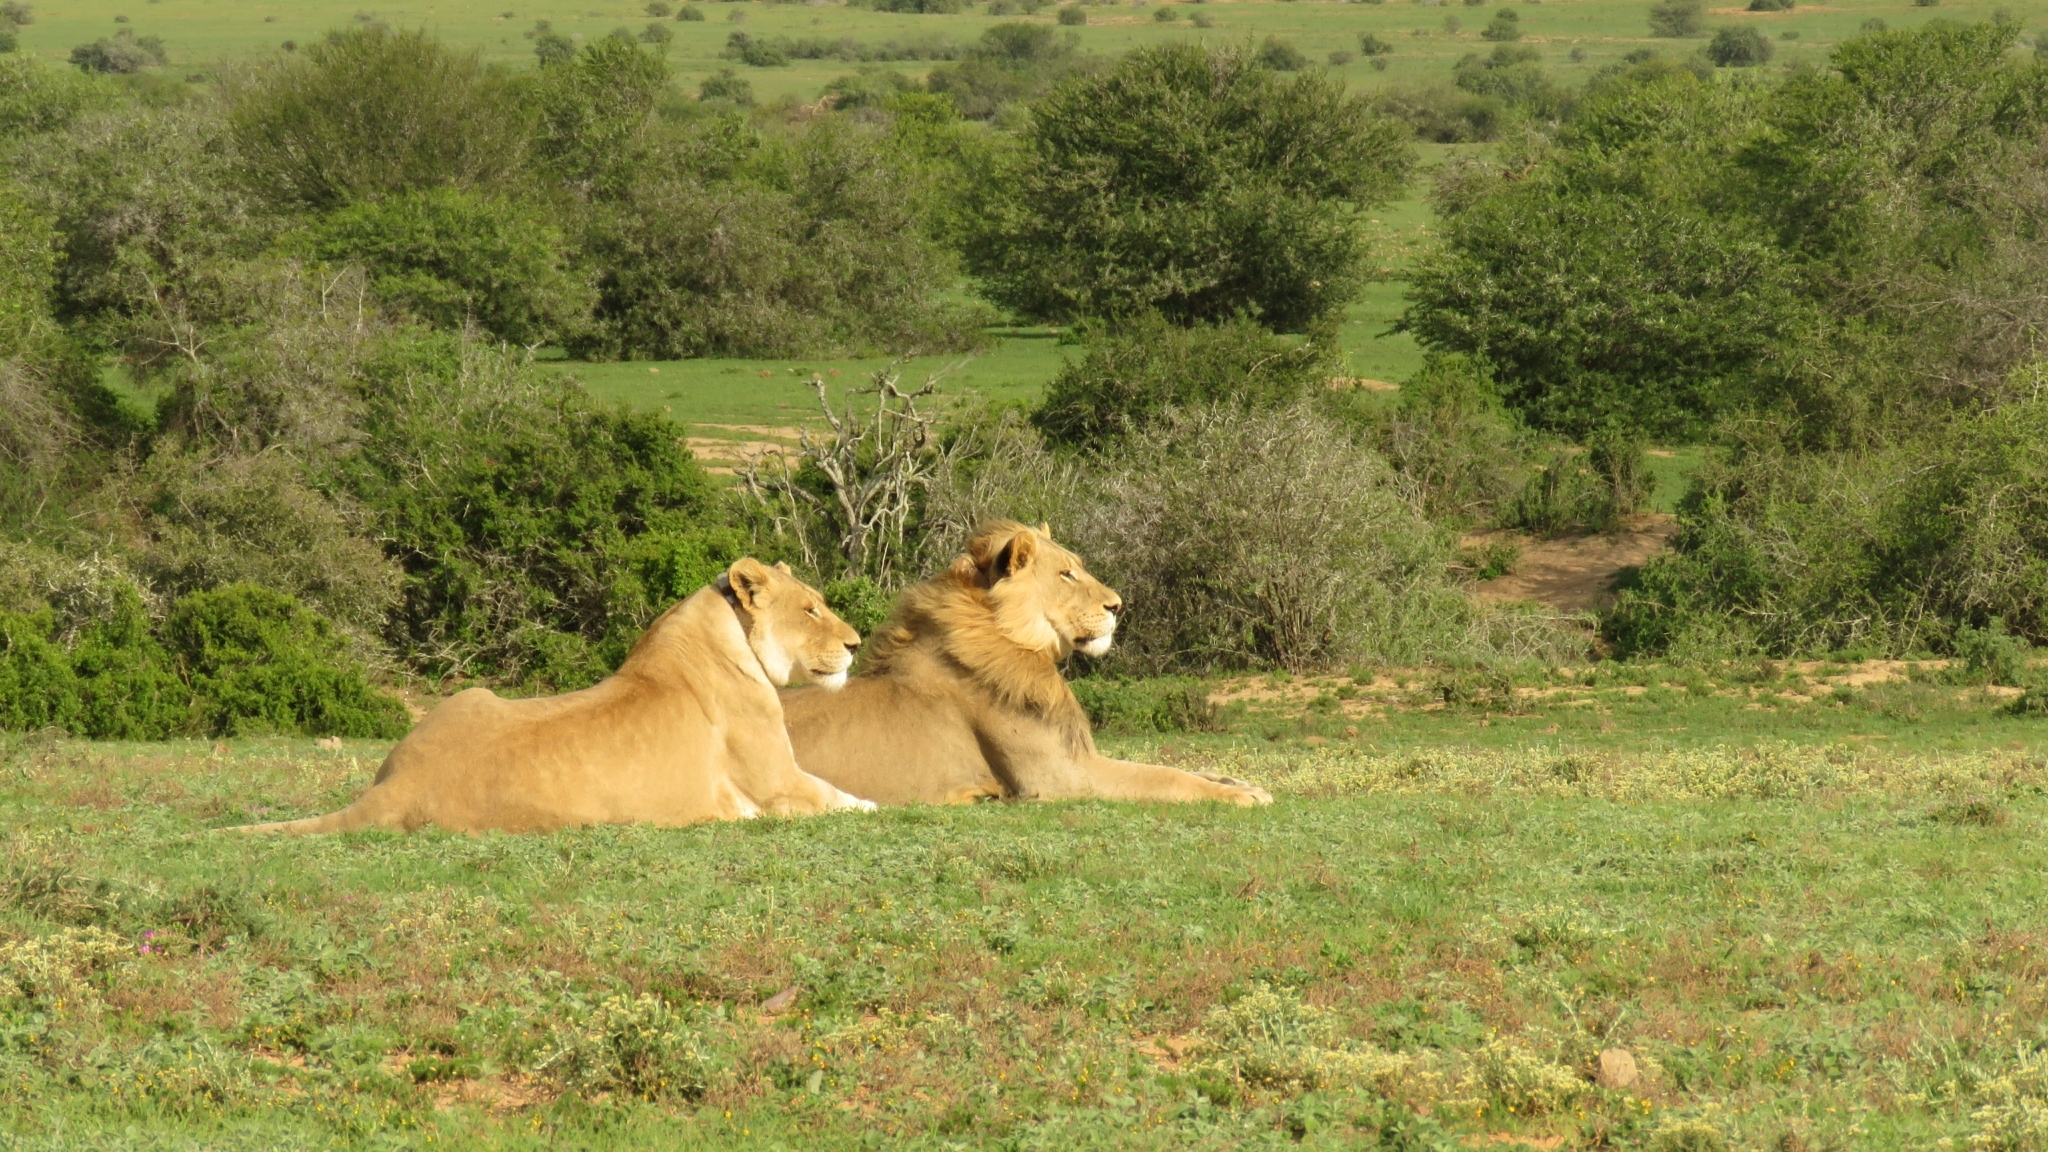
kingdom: Animalia
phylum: Chordata
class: Mammalia
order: Carnivora
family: Felidae
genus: Panthera
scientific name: Panthera leo
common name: Lion
